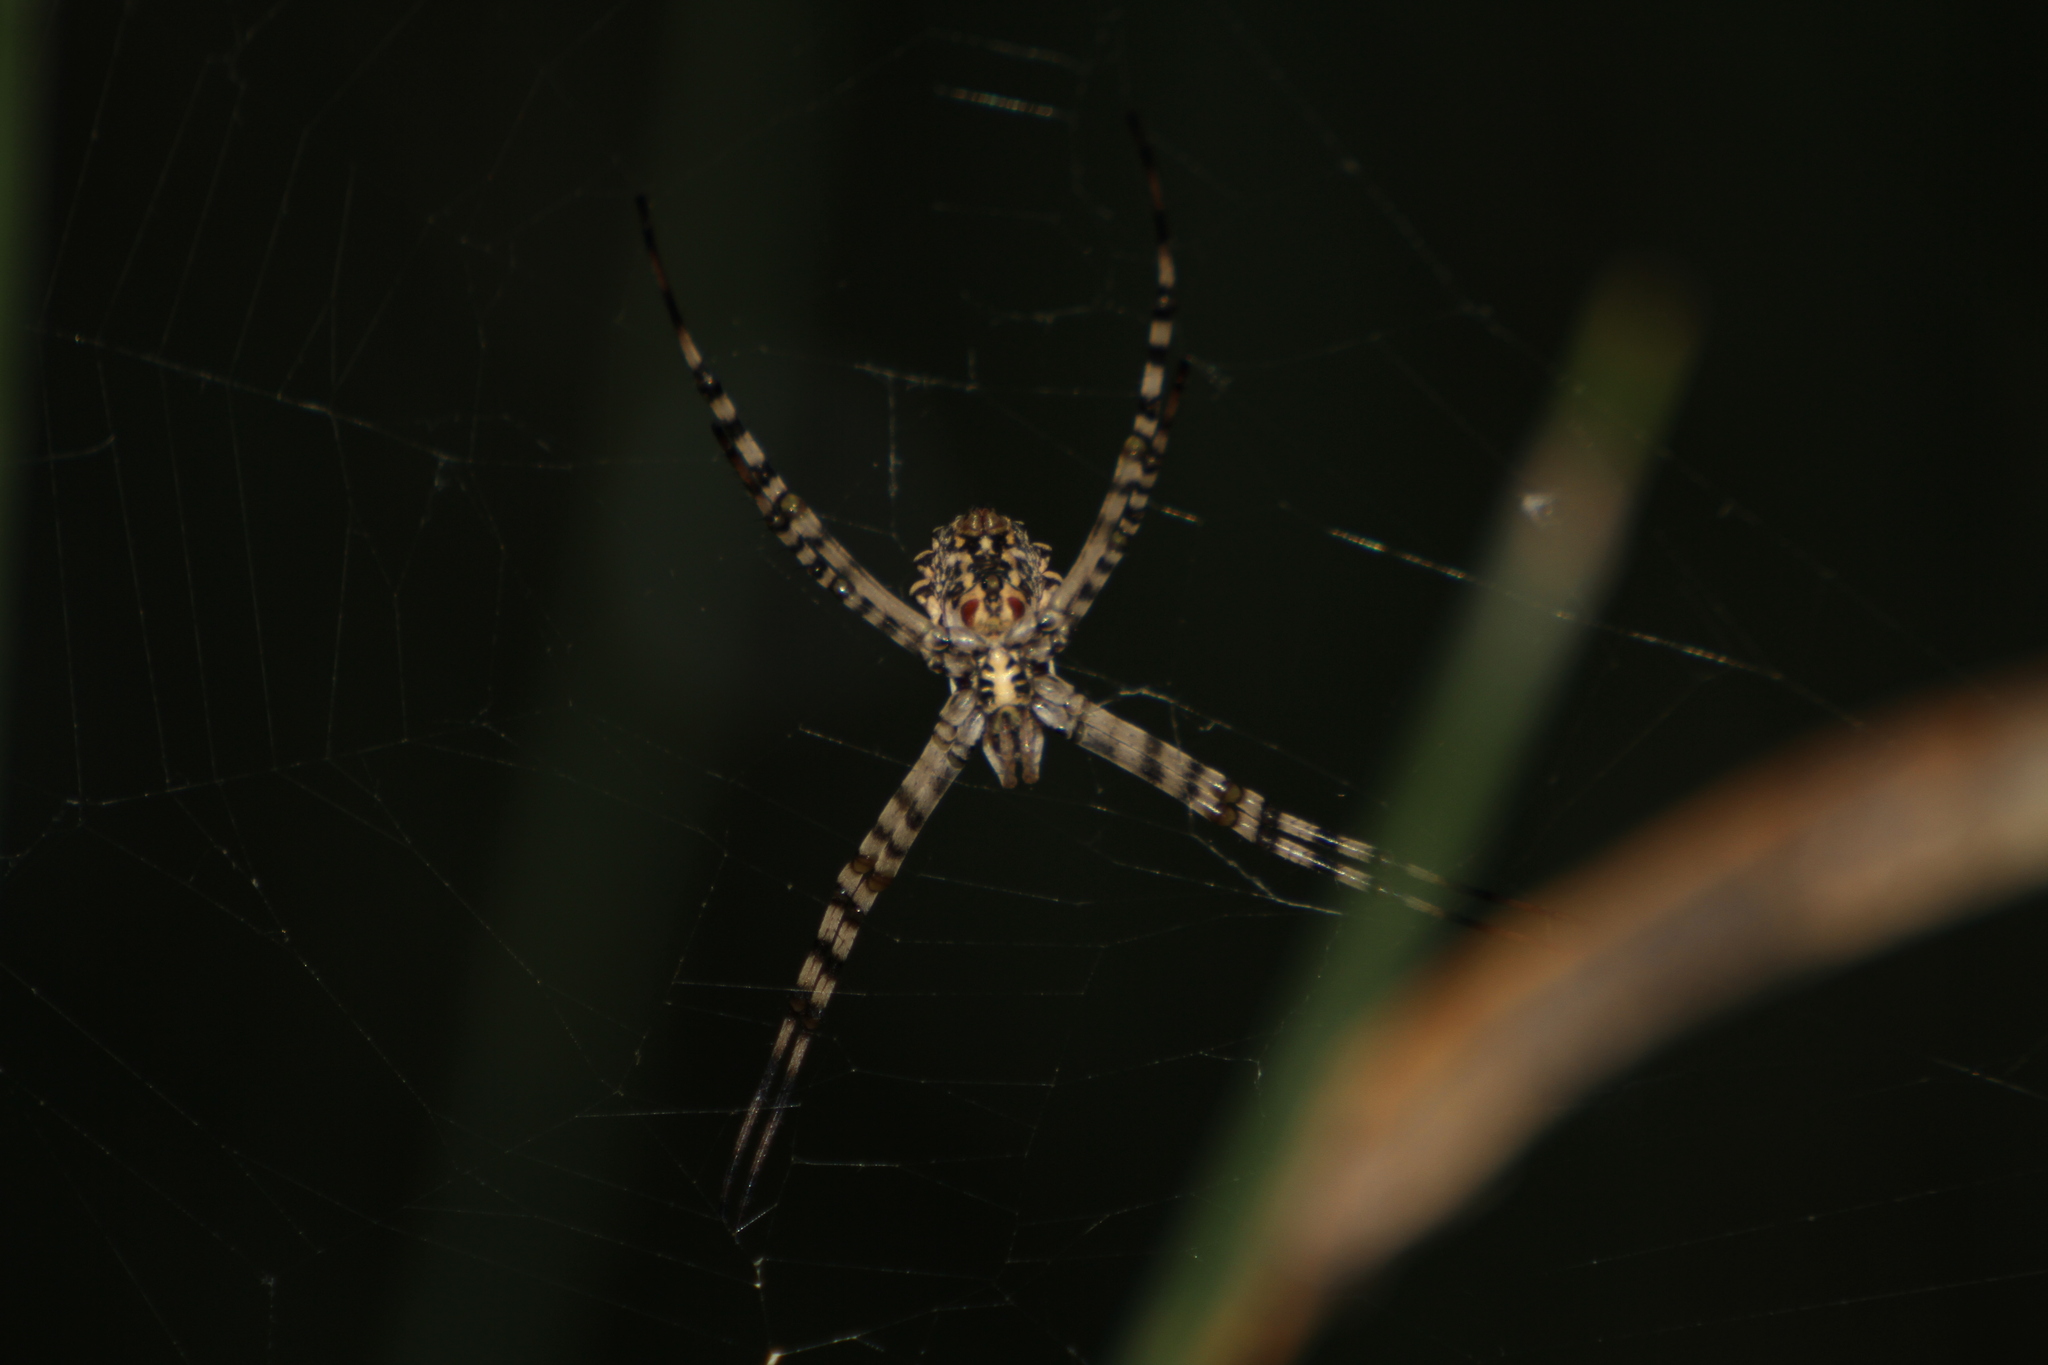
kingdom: Animalia
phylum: Arthropoda
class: Arachnida
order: Araneae
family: Araneidae
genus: Argiope
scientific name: Argiope lobata
